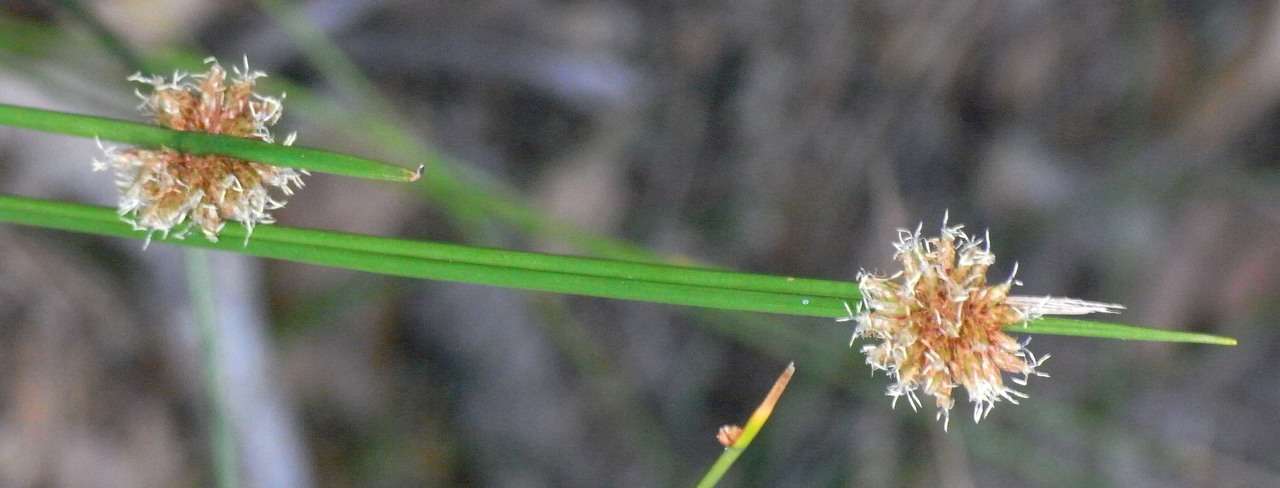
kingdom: Plantae
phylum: Tracheophyta
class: Liliopsida
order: Poales
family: Cyperaceae
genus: Ficinia
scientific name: Ficinia nodosa
